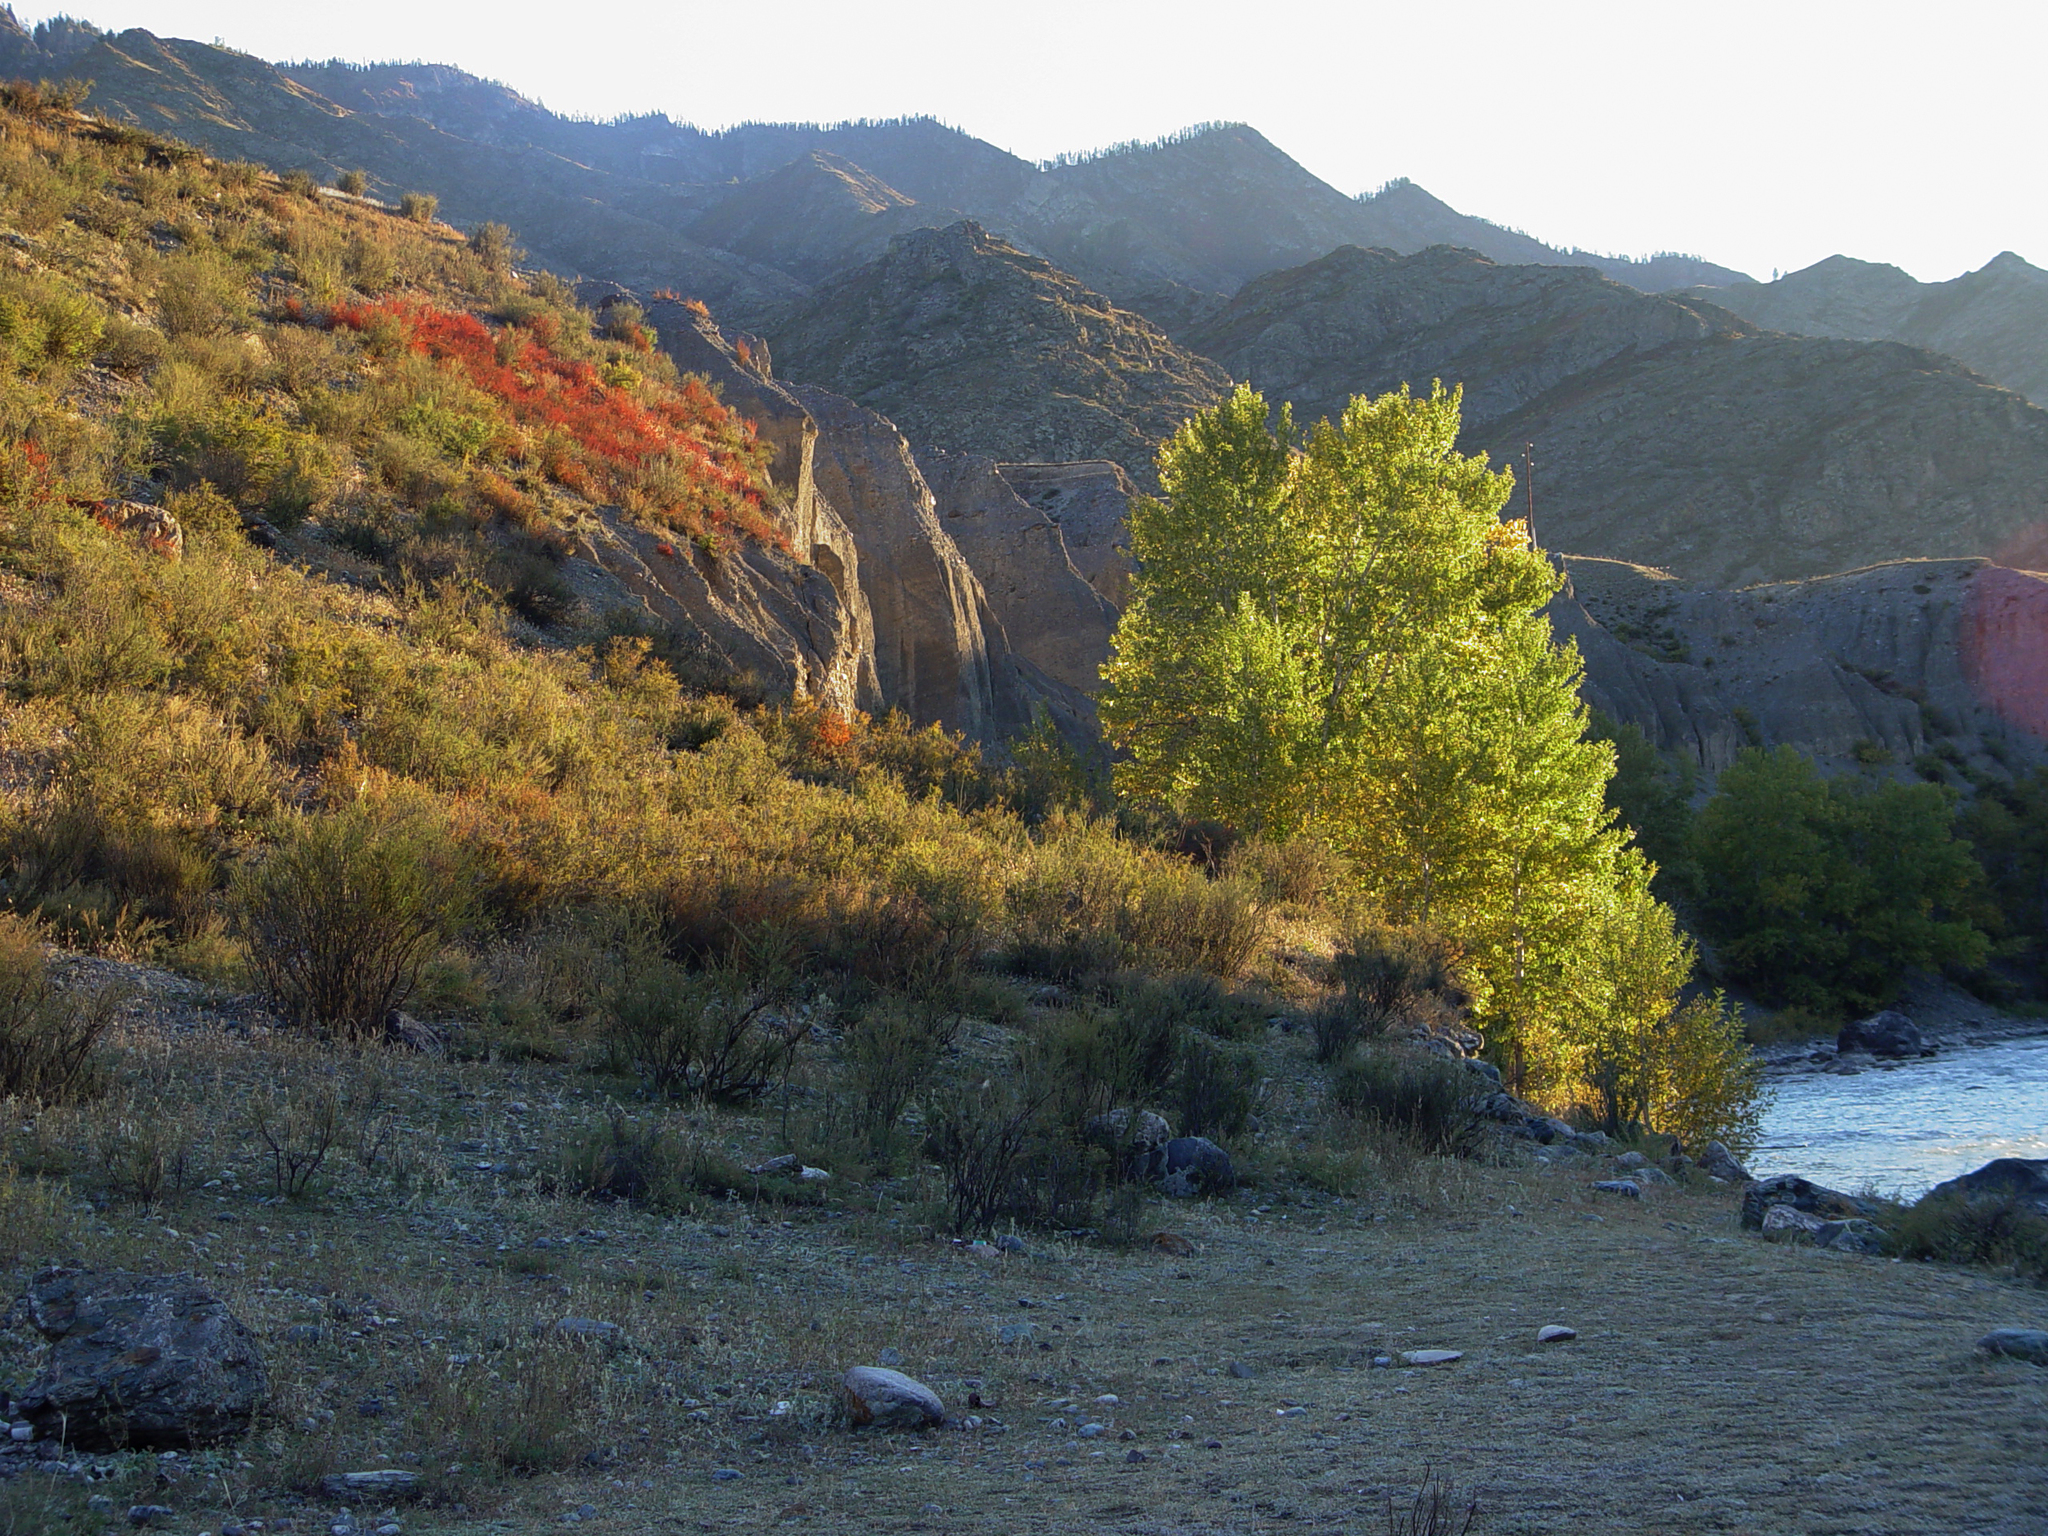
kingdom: Plantae
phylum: Tracheophyta
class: Magnoliopsida
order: Malpighiales
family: Salicaceae
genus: Populus
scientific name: Populus laurifolia
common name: Laurel-leaf poplar
